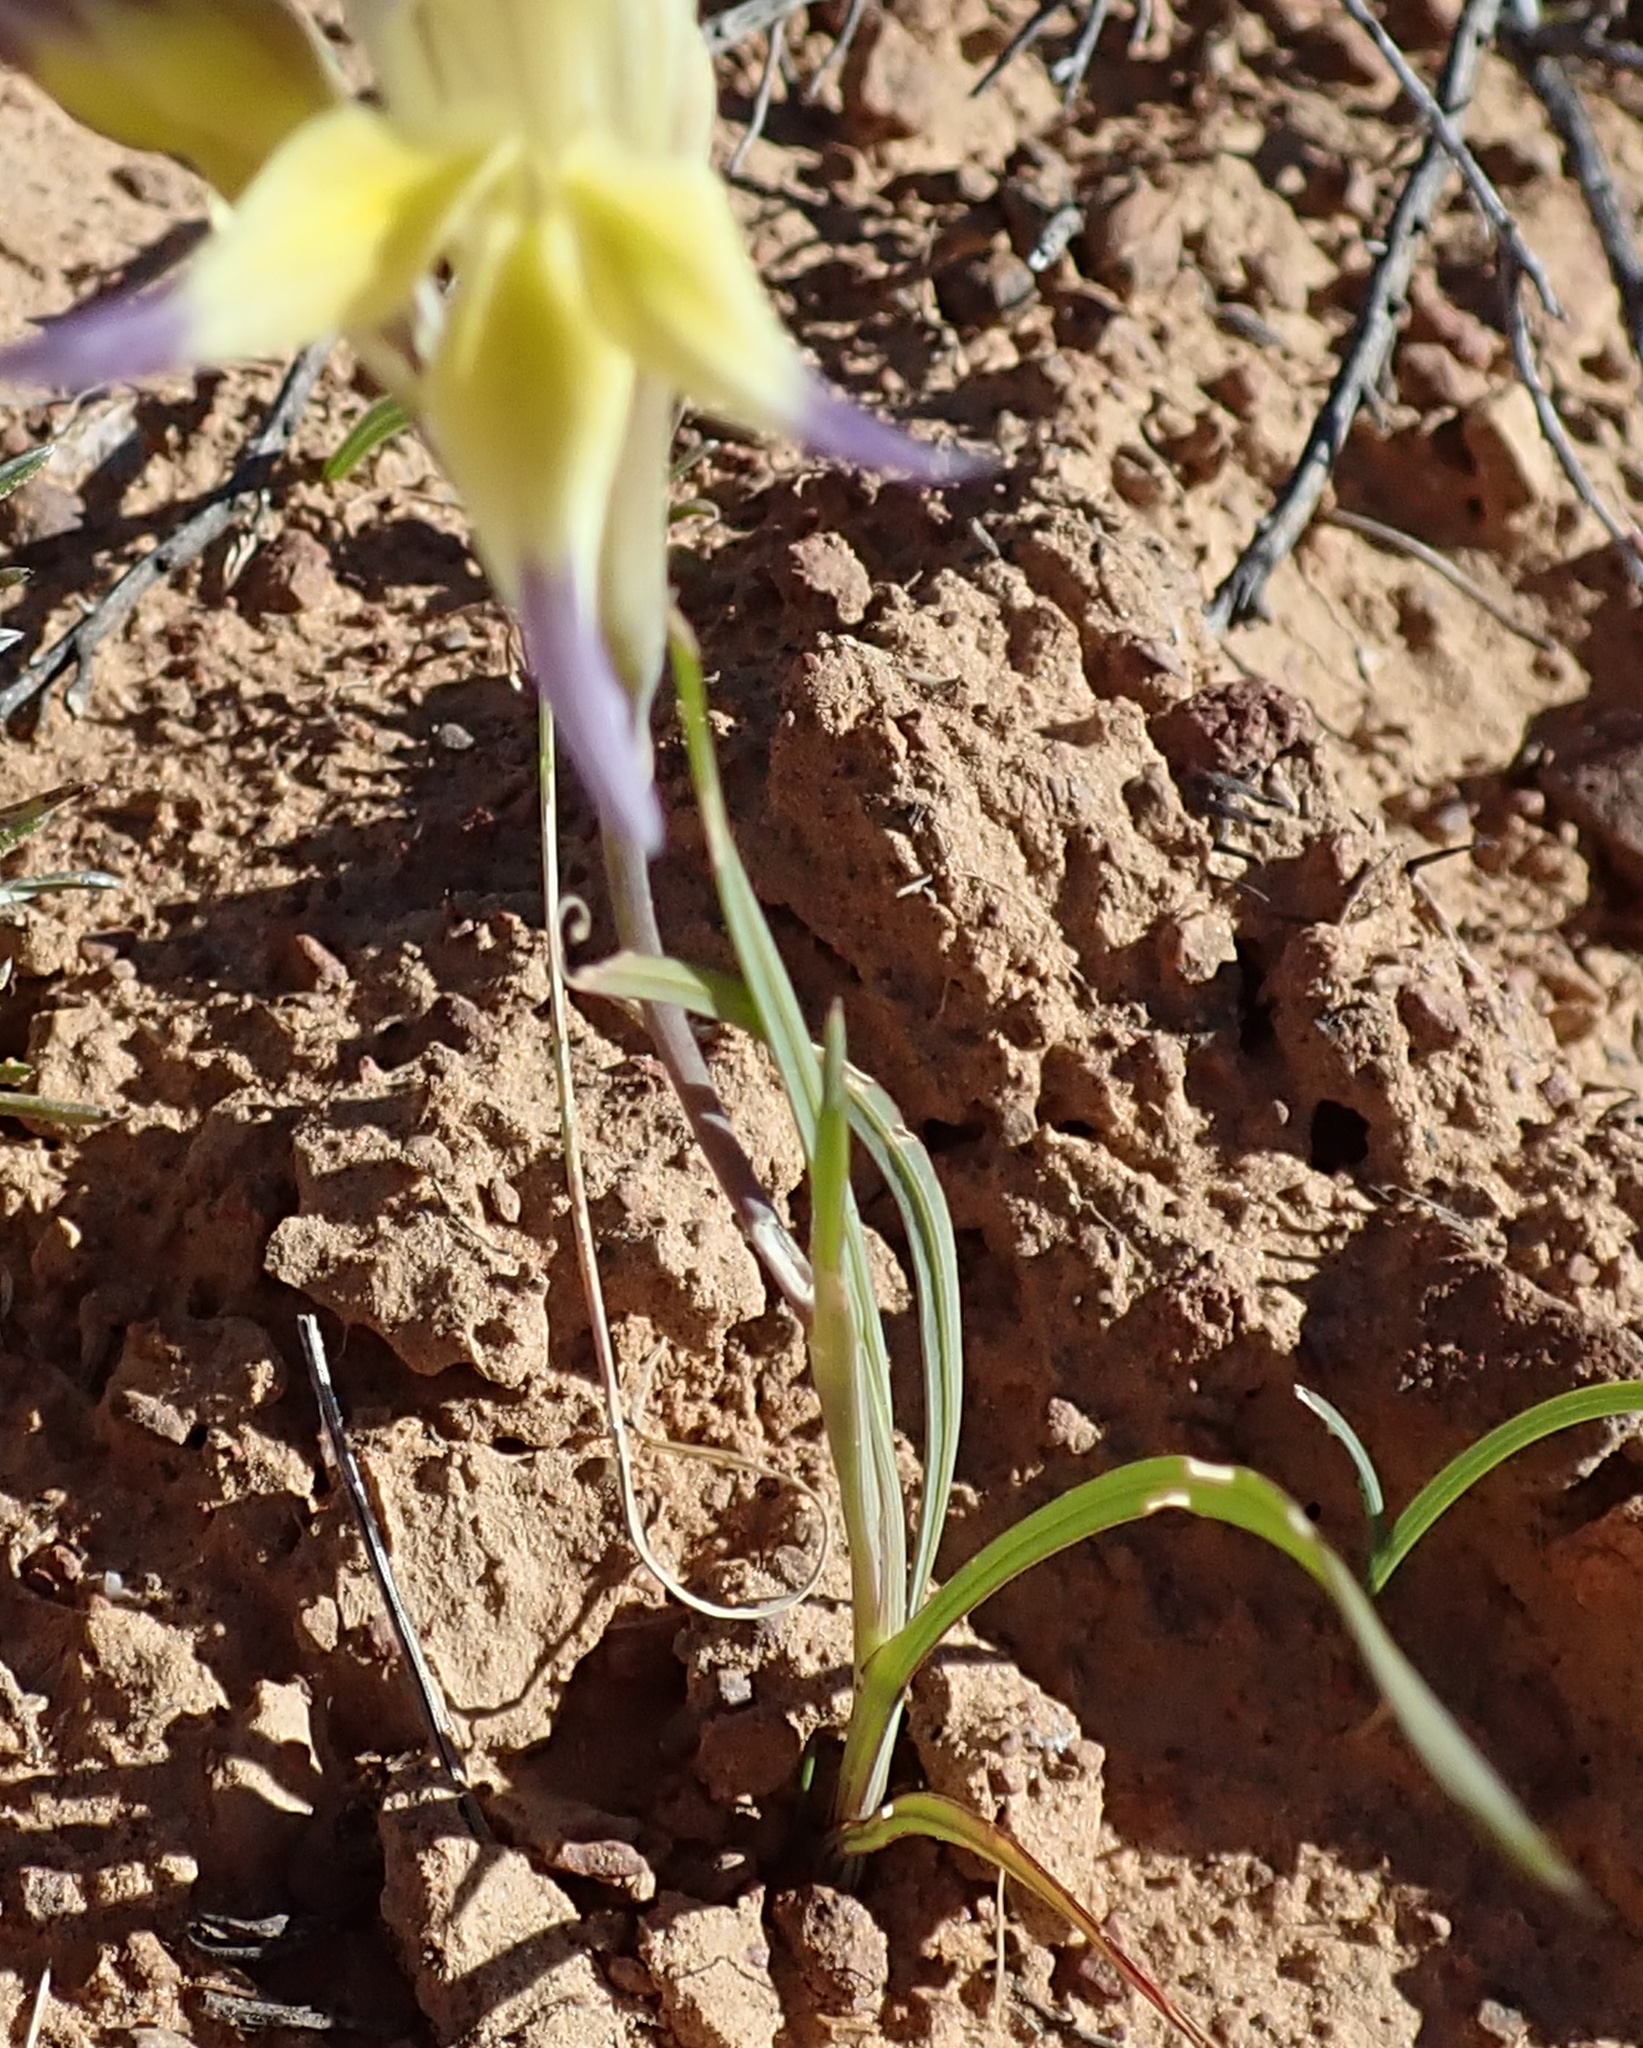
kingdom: Plantae
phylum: Tracheophyta
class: Liliopsida
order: Asparagales
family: Iridaceae
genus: Gladiolus
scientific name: Gladiolus venustus
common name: Purple kalkoentjie
